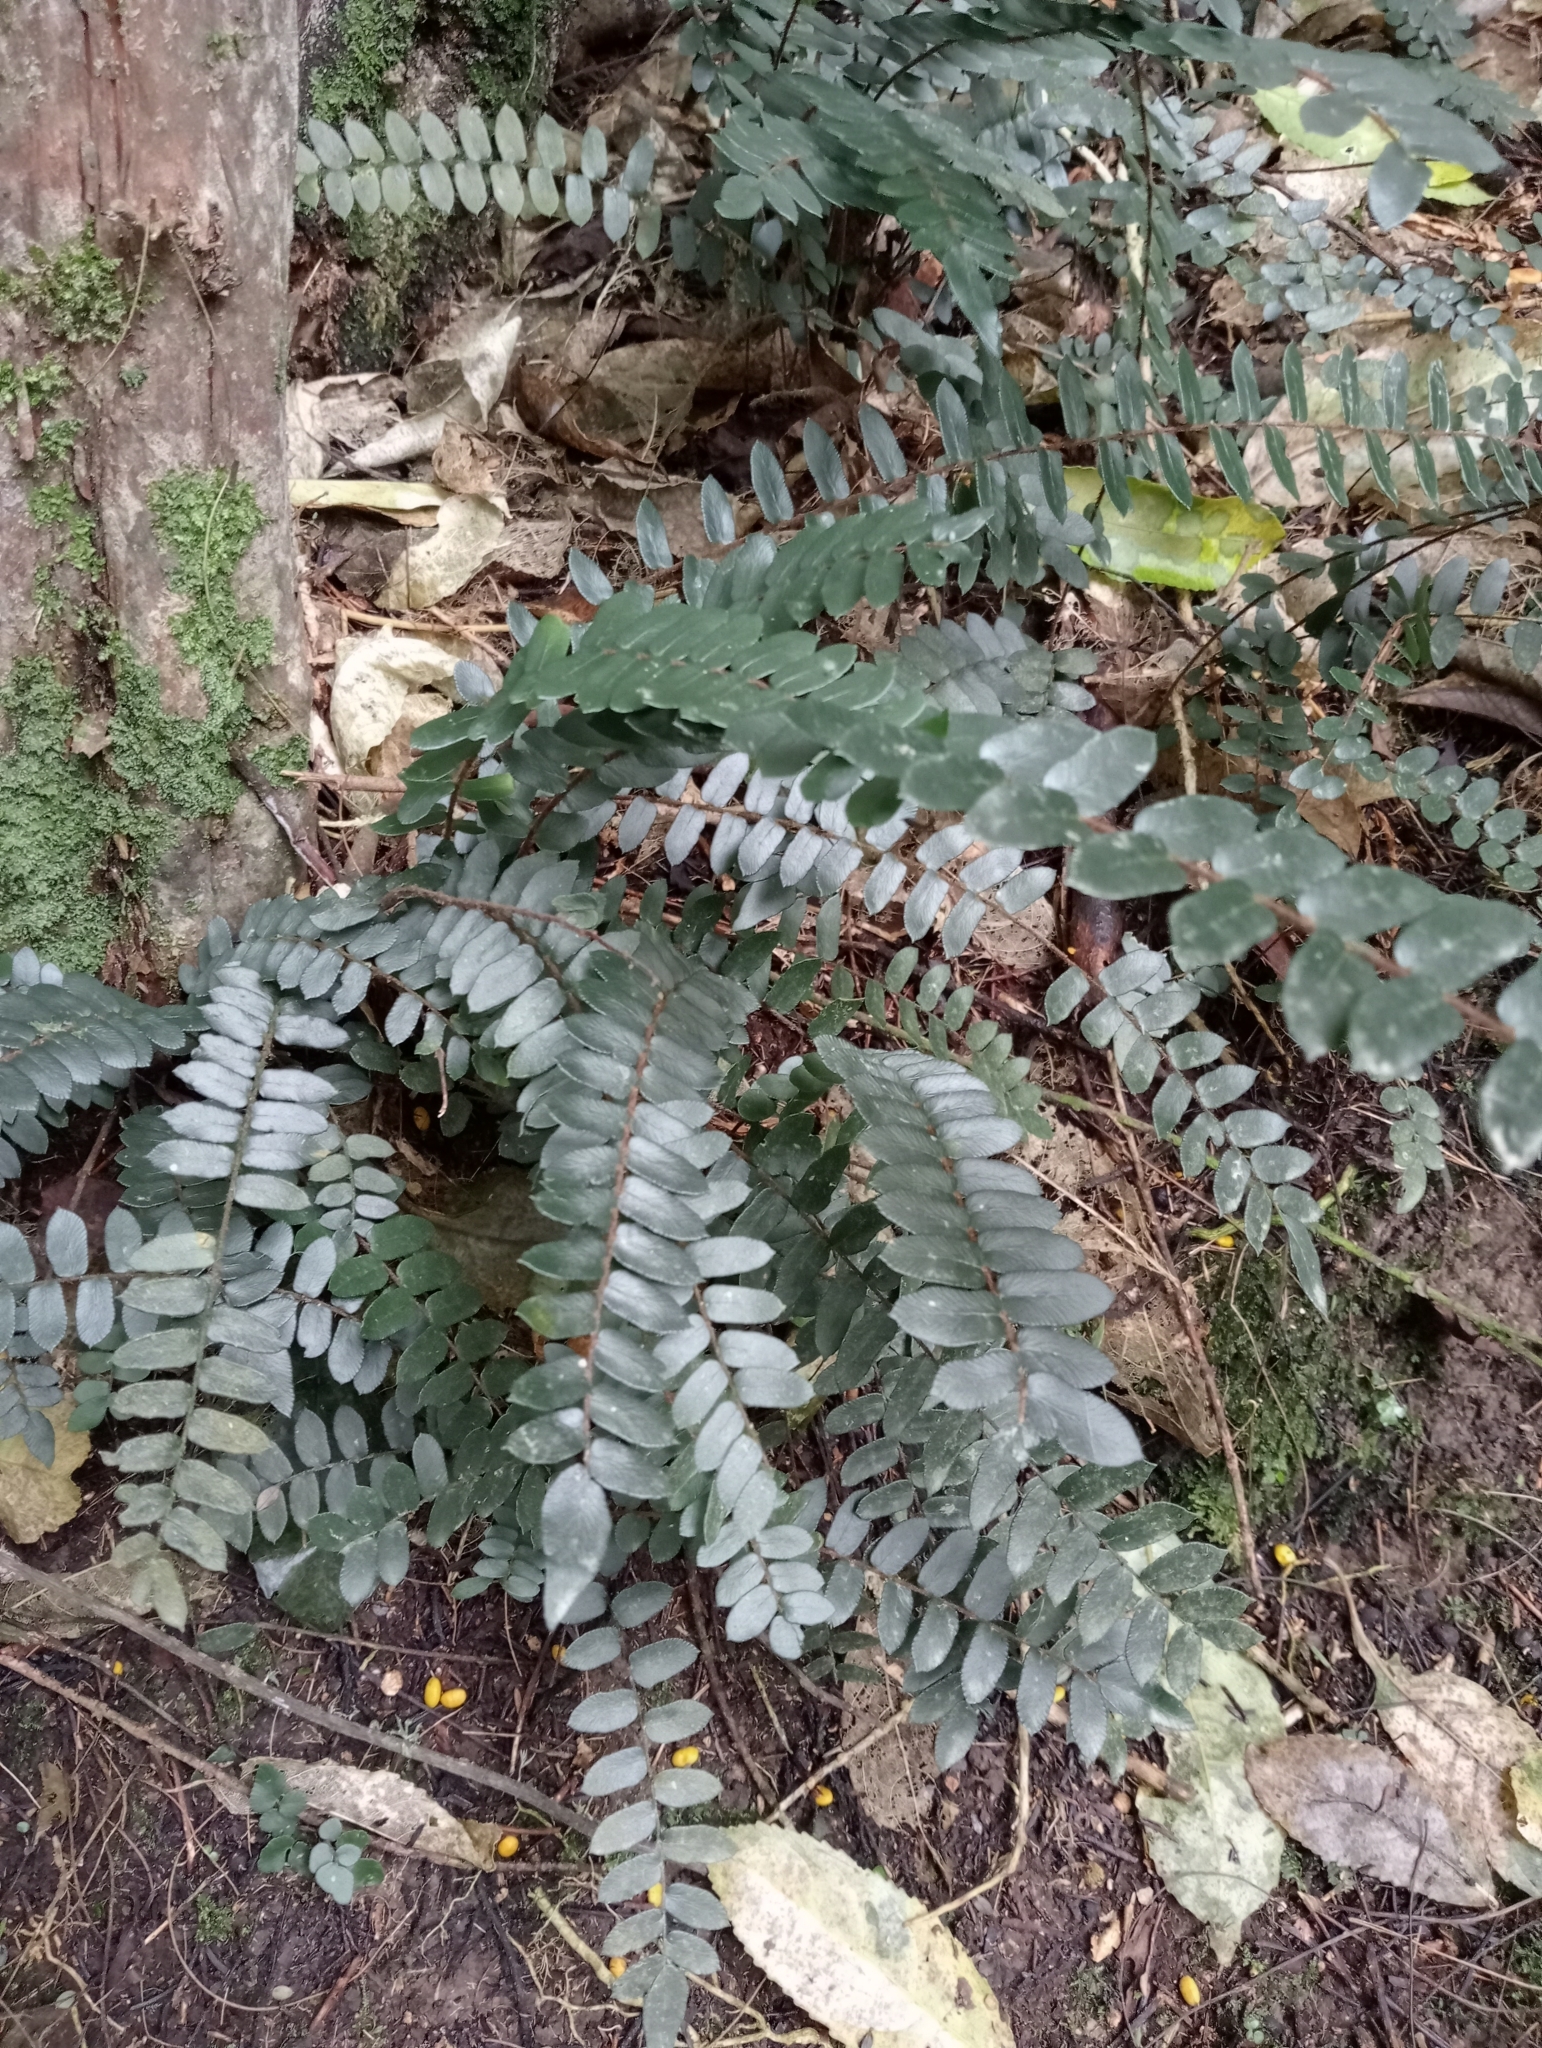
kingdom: Plantae
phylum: Tracheophyta
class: Polypodiopsida
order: Polypodiales
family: Pteridaceae
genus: Pellaea
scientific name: Pellaea rotundifolia
